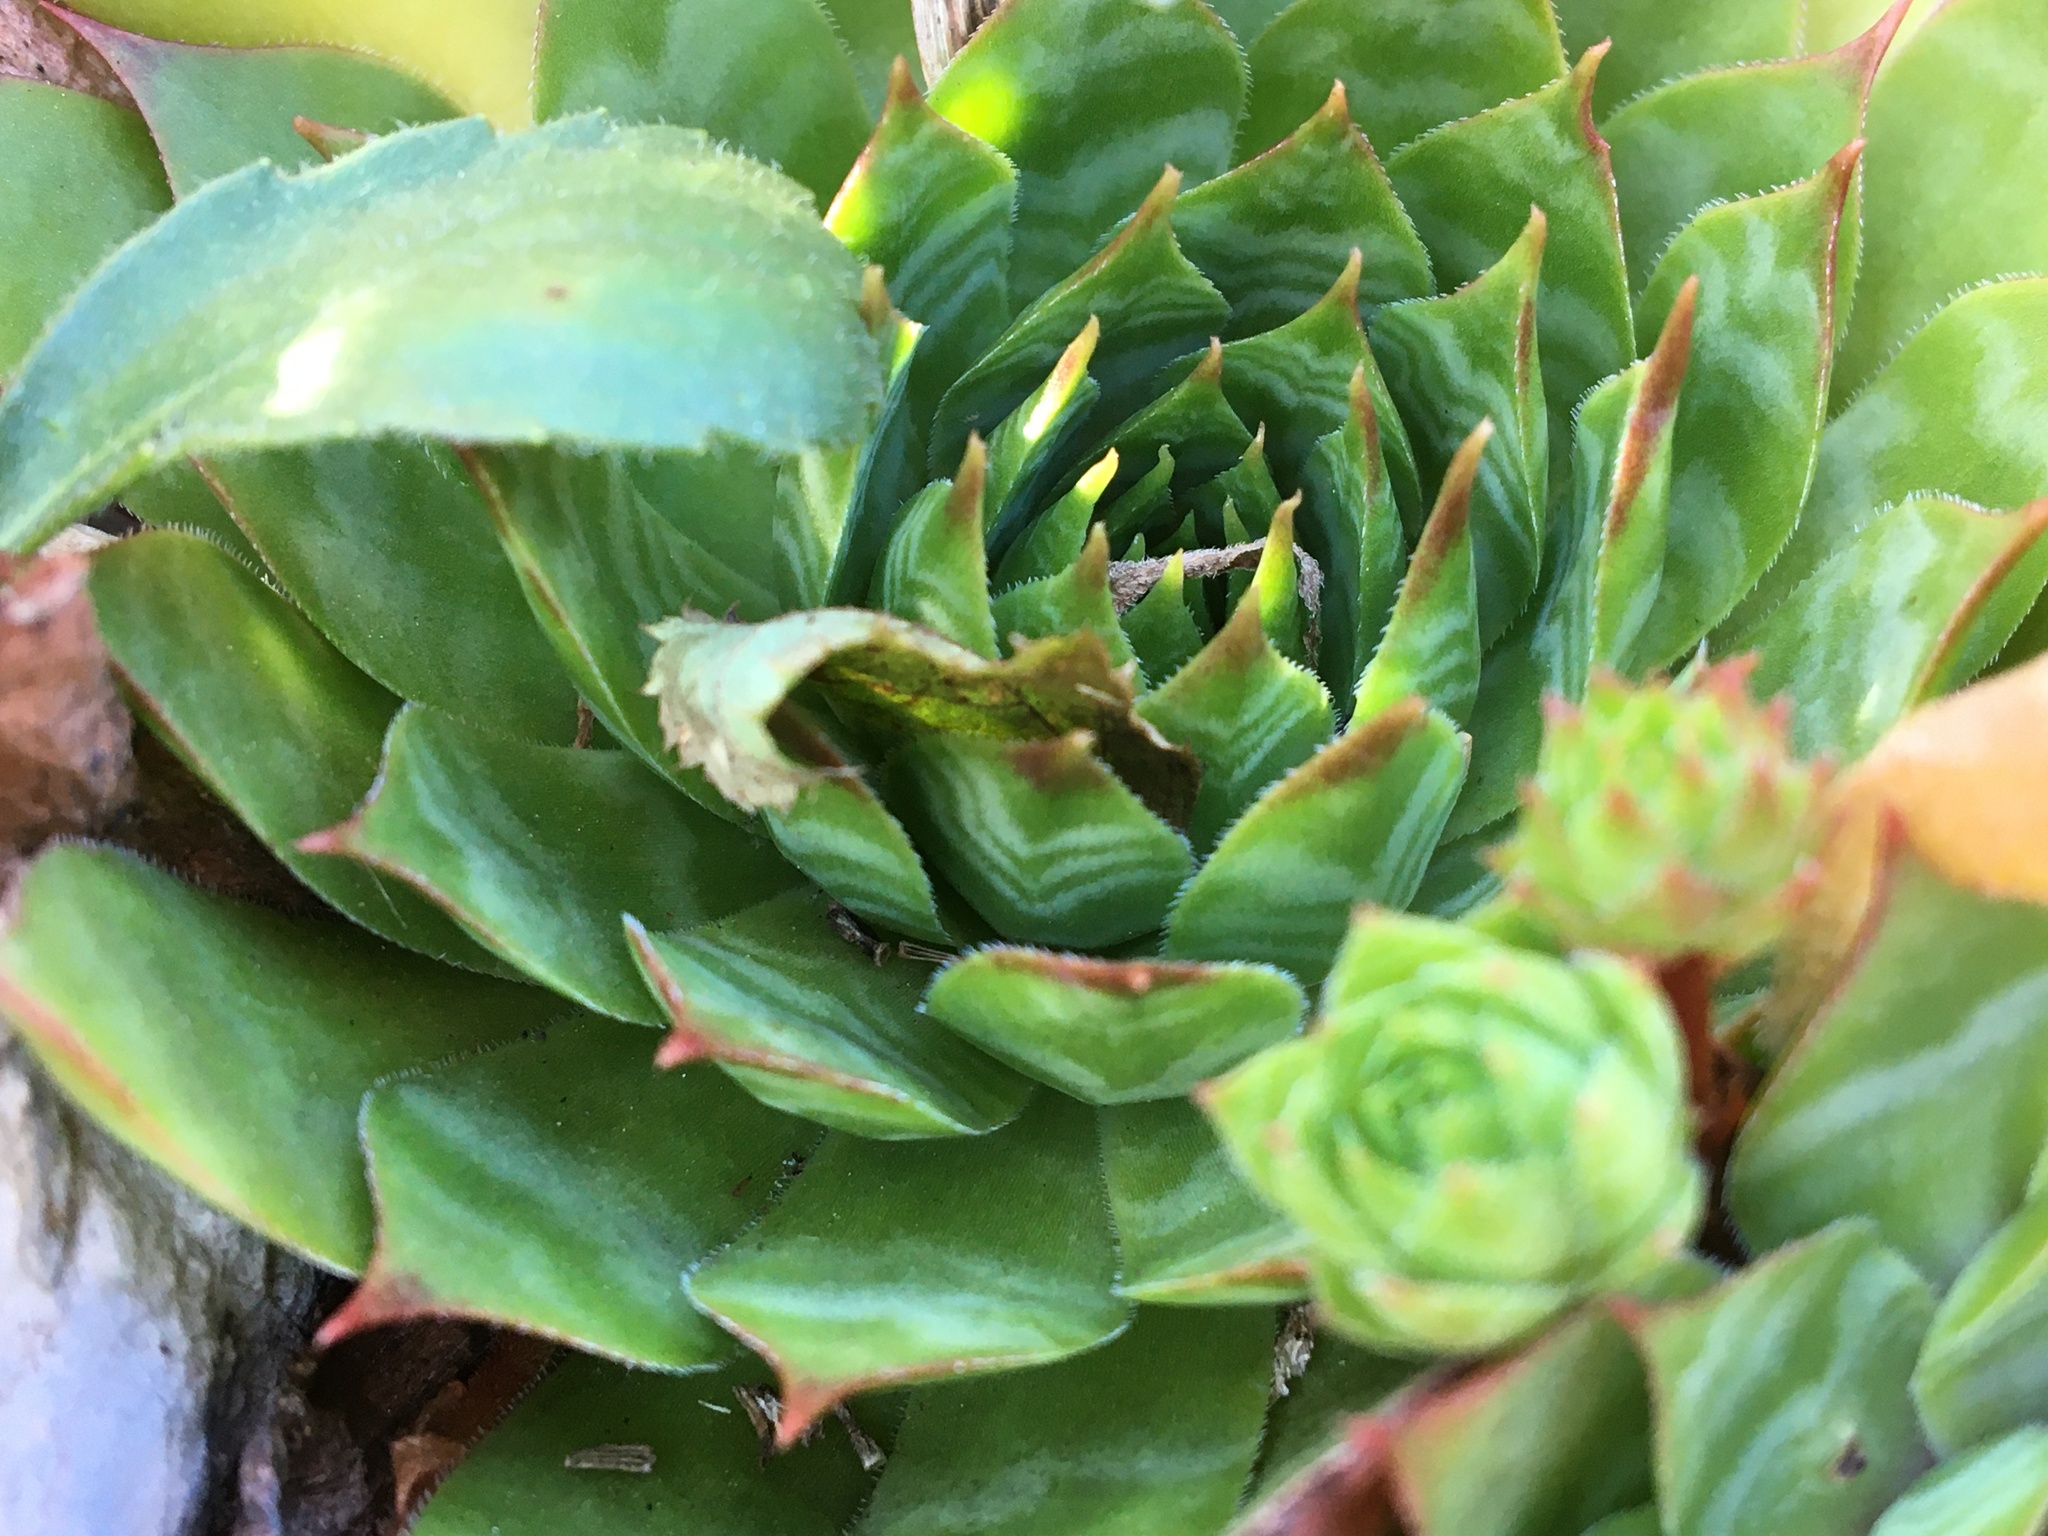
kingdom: Plantae
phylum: Tracheophyta
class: Magnoliopsida
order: Saxifragales
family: Crassulaceae
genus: Sempervivum
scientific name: Sempervivum tectorum
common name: House-leek
